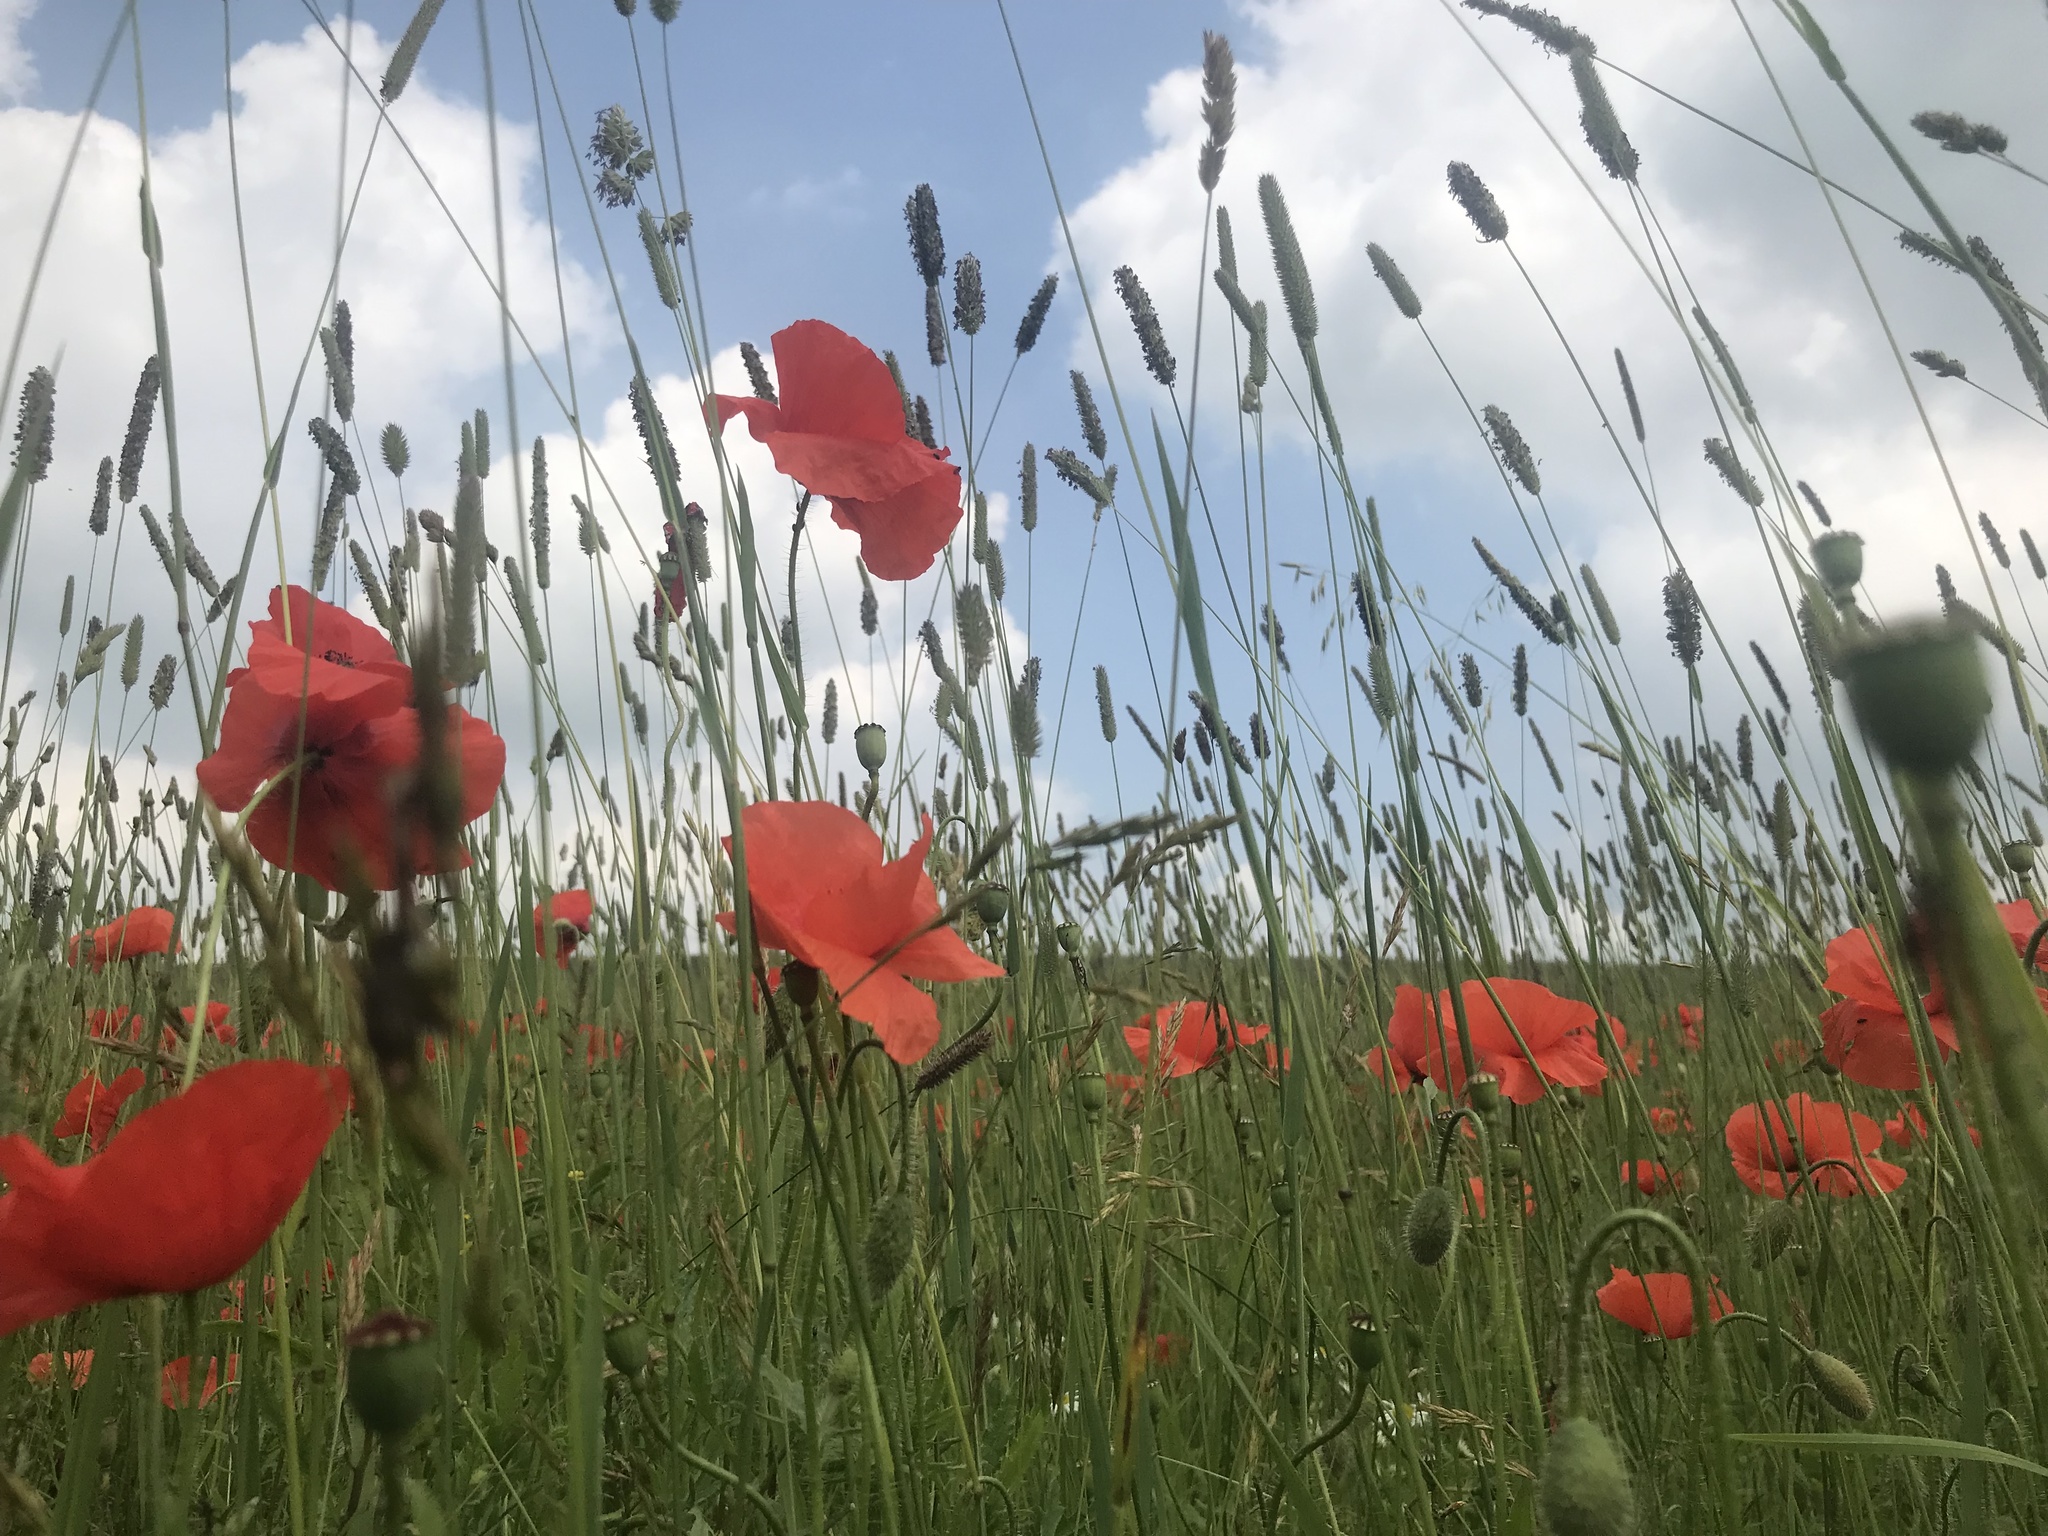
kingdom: Plantae
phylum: Tracheophyta
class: Magnoliopsida
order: Ranunculales
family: Papaveraceae
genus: Papaver
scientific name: Papaver rhoeas
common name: Corn poppy
